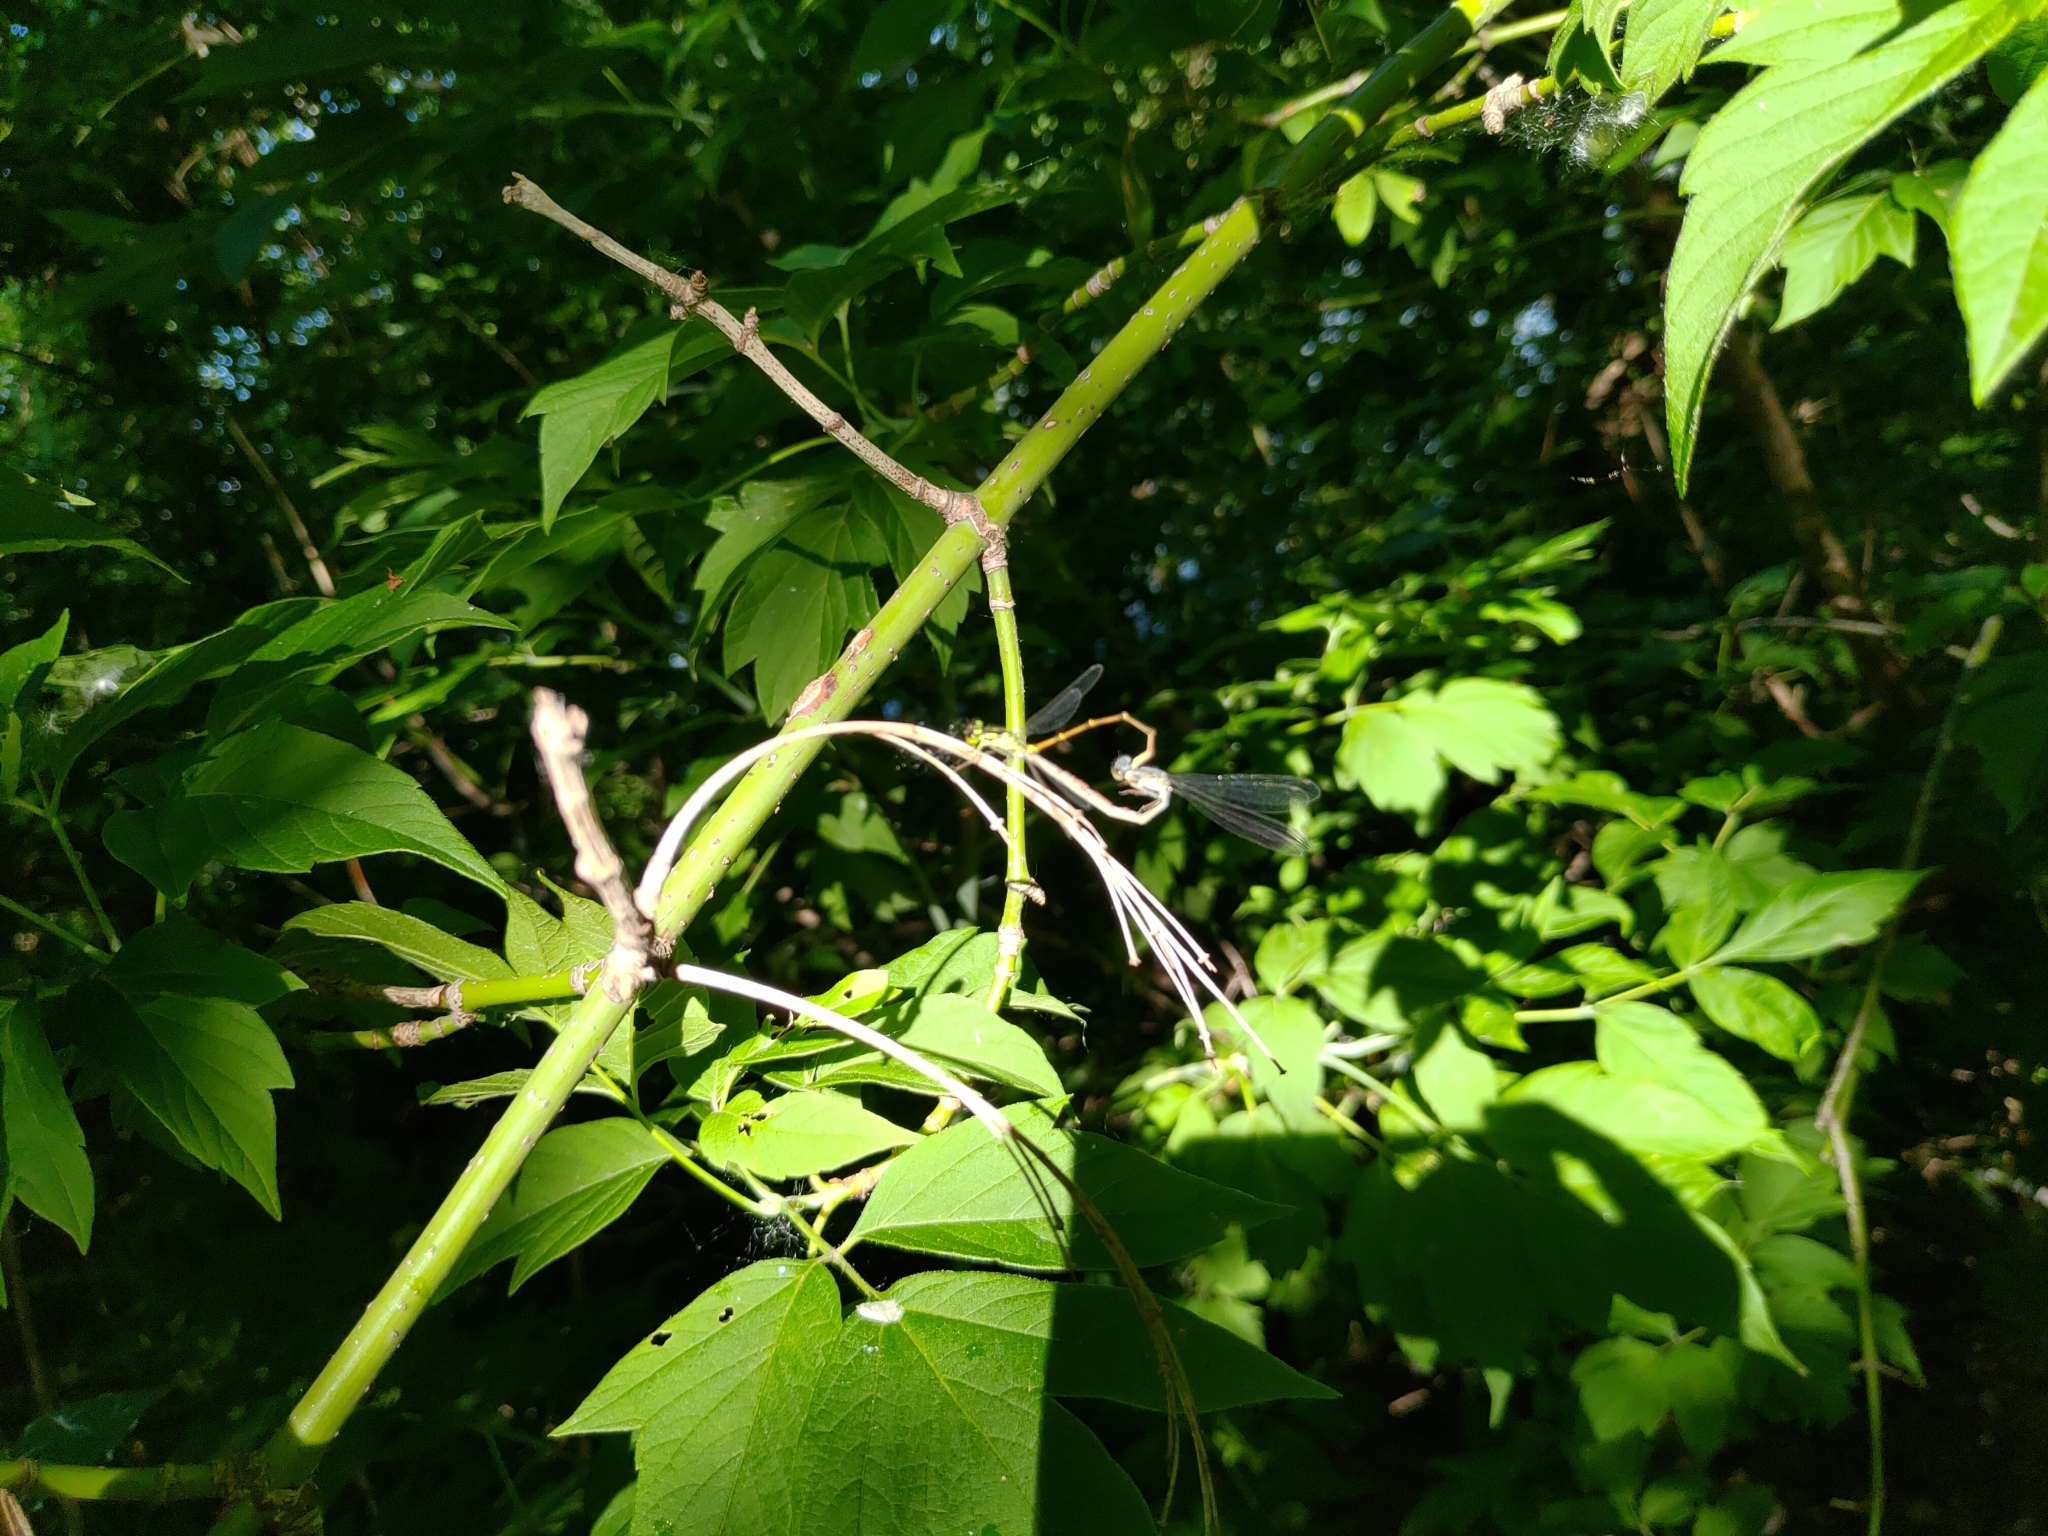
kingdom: Animalia
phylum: Arthropoda
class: Insecta
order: Odonata
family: Coenagrionidae
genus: Ischnura
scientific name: Ischnura posita
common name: Fragile forktail
